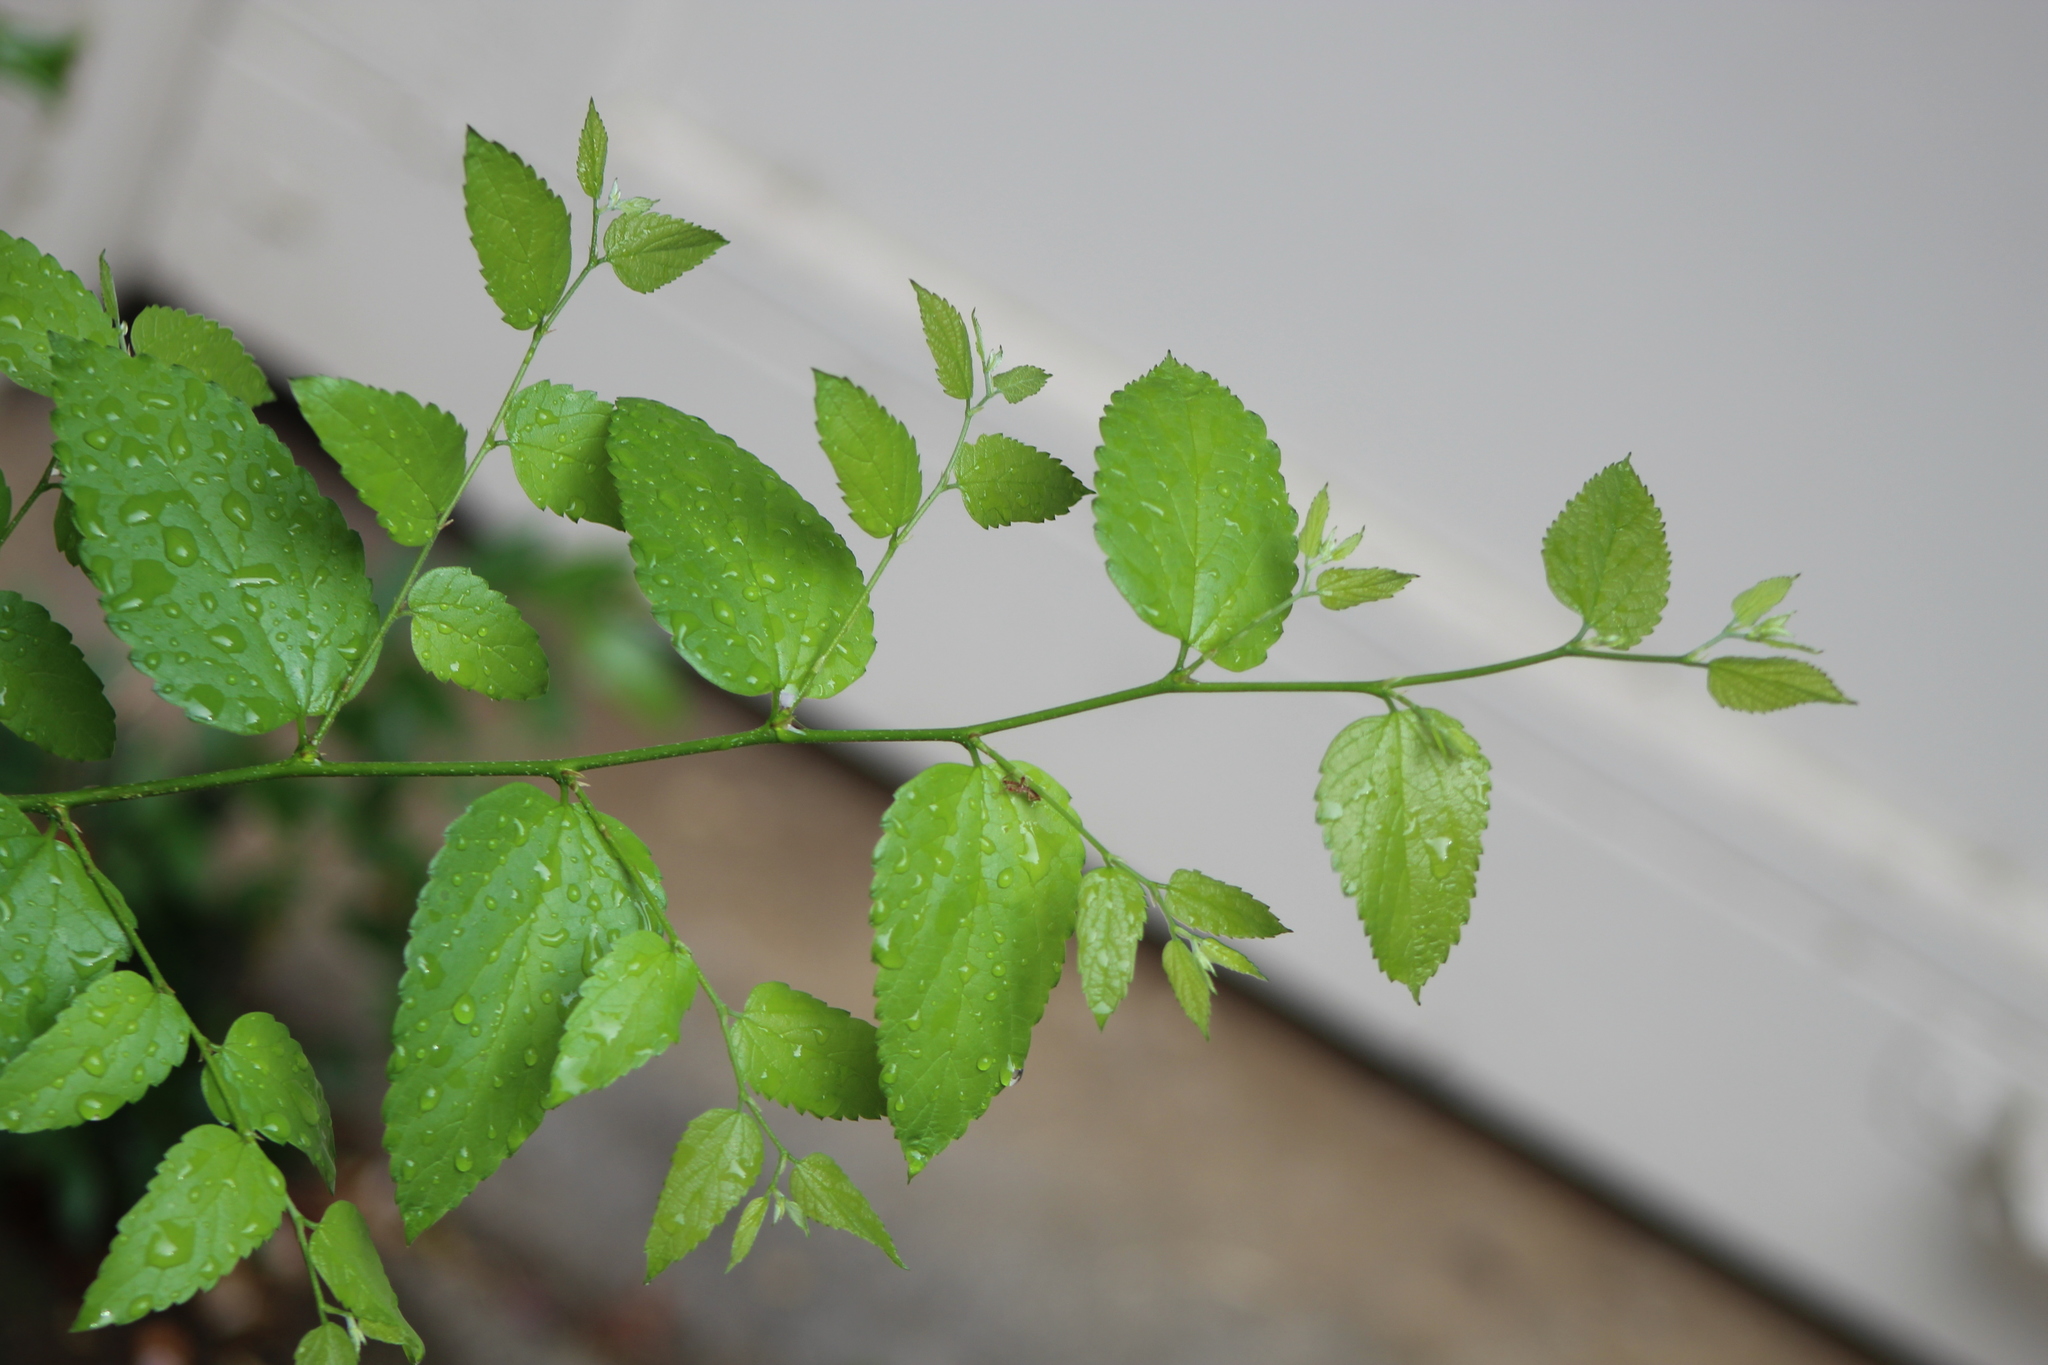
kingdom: Plantae
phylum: Tracheophyta
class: Magnoliopsida
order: Rosales
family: Cannabaceae
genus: Celtis
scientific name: Celtis laevigata
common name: Sugarberry
